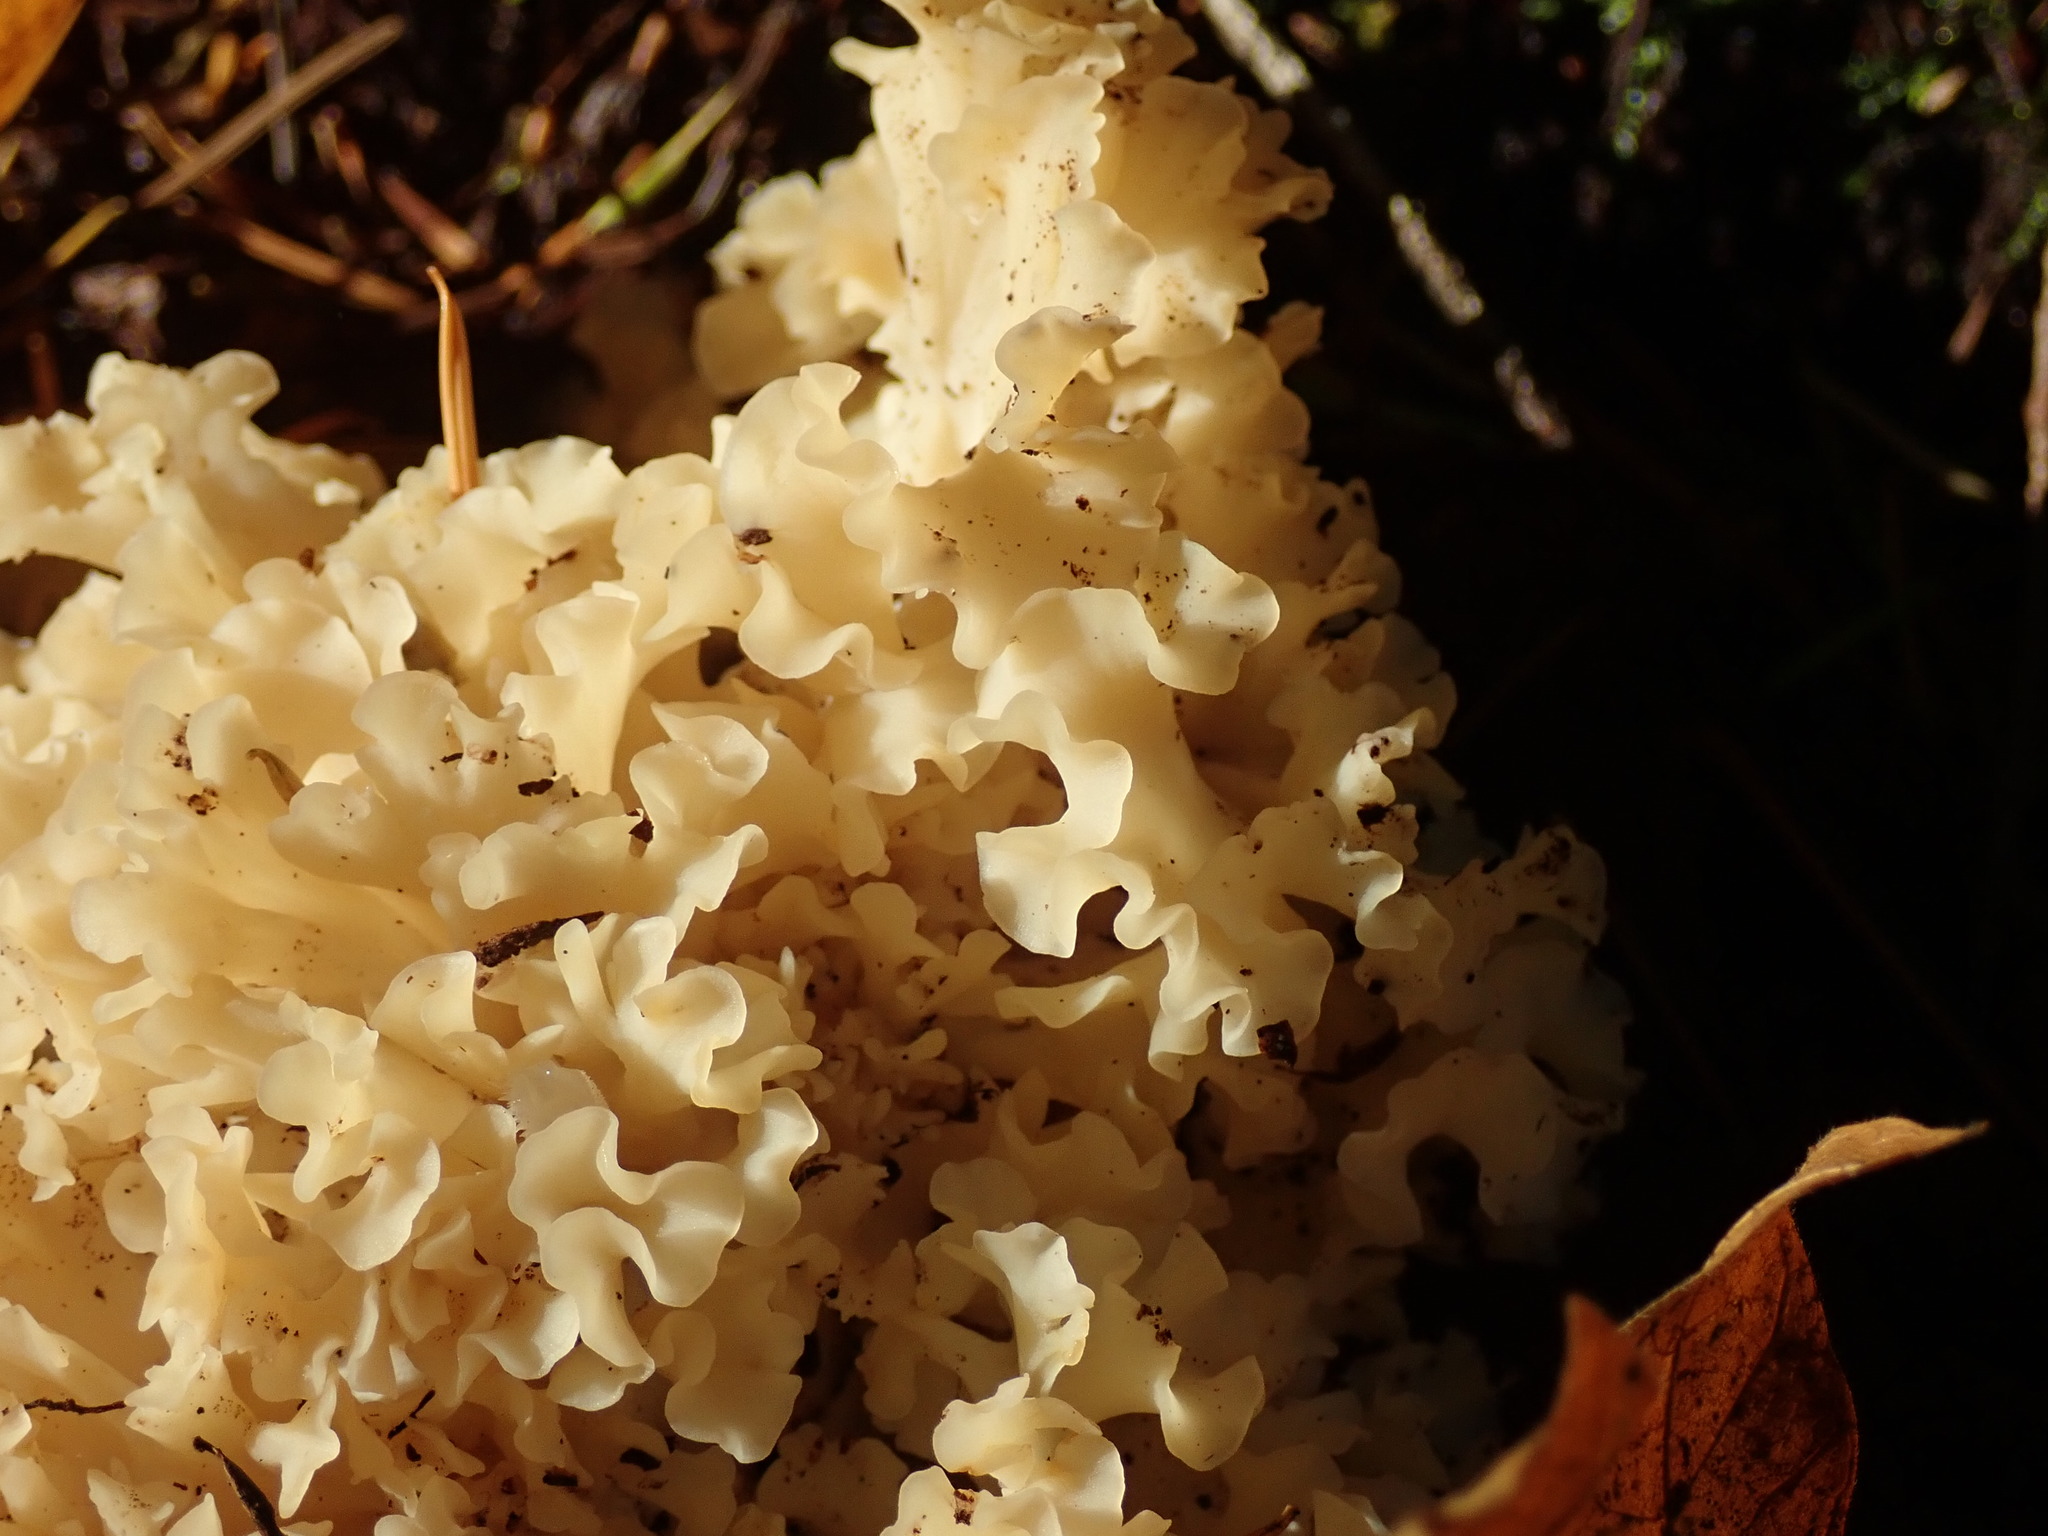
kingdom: Fungi
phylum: Basidiomycota
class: Agaricomycetes
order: Polyporales
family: Sparassidaceae
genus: Sparassis
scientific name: Sparassis radicata
